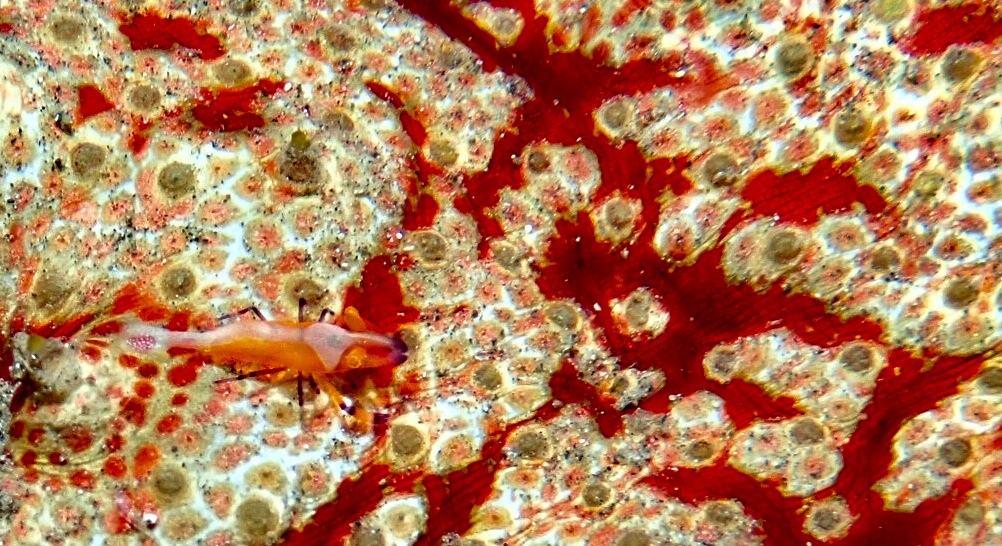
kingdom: Animalia
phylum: Arthropoda
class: Malacostraca
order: Decapoda
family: Palaemonidae
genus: Periclimenes
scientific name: Periclimenes rex
